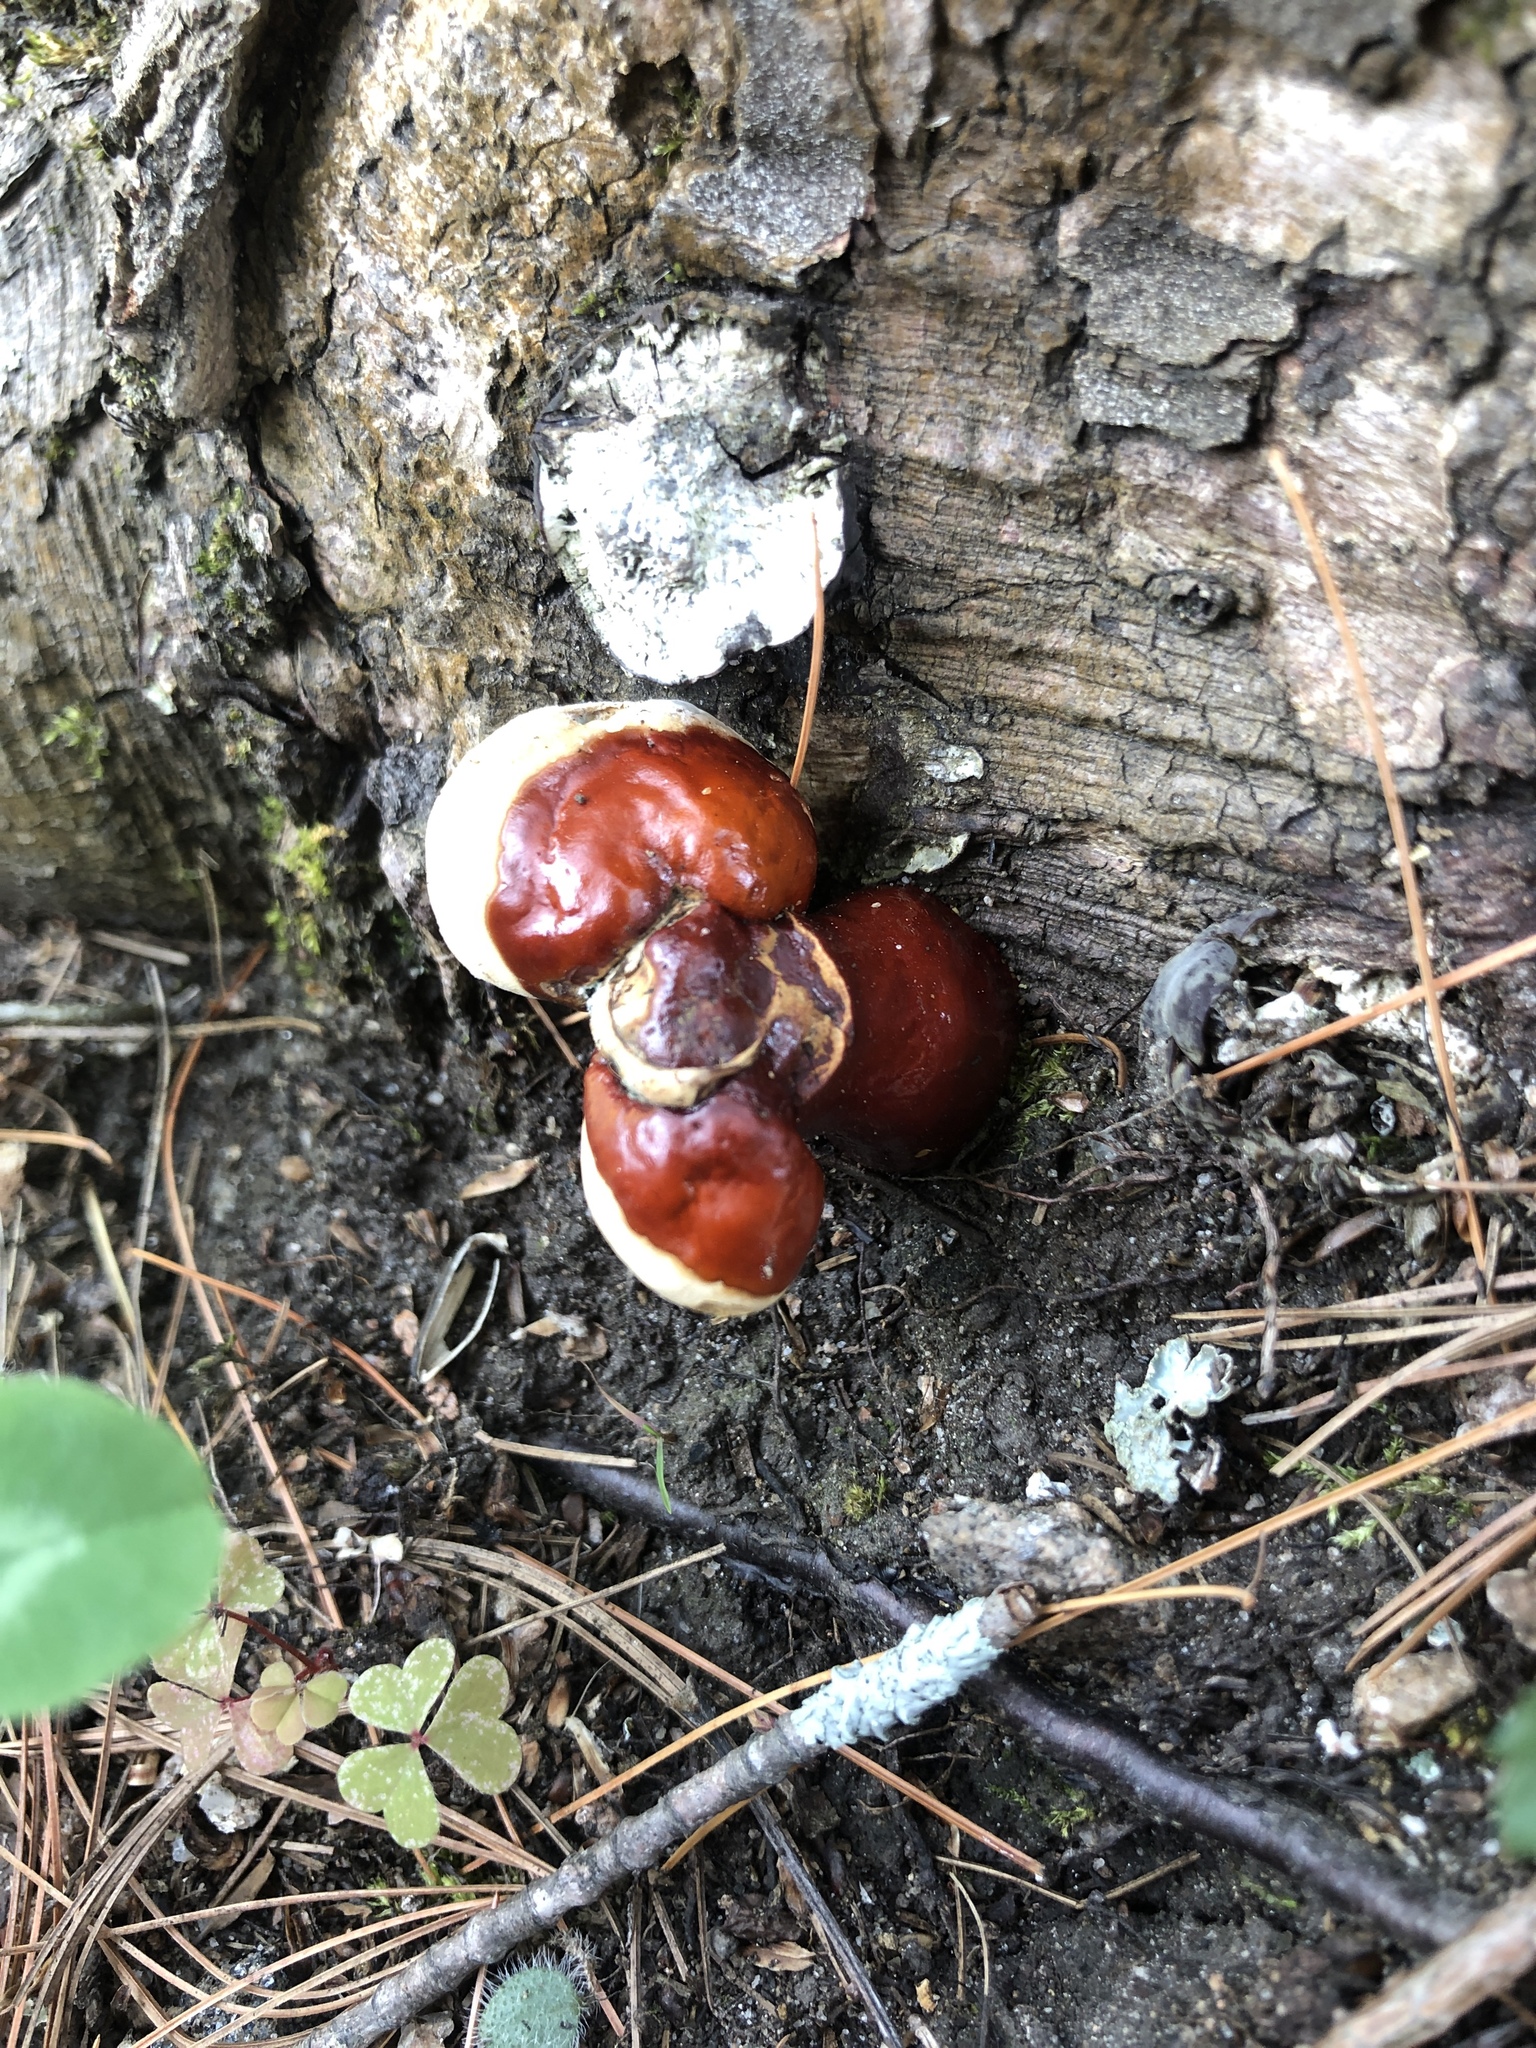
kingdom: Fungi
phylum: Basidiomycota
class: Agaricomycetes
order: Polyporales
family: Polyporaceae
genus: Ganoderma
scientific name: Ganoderma tsugae
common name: Hemlock varnish shelf
